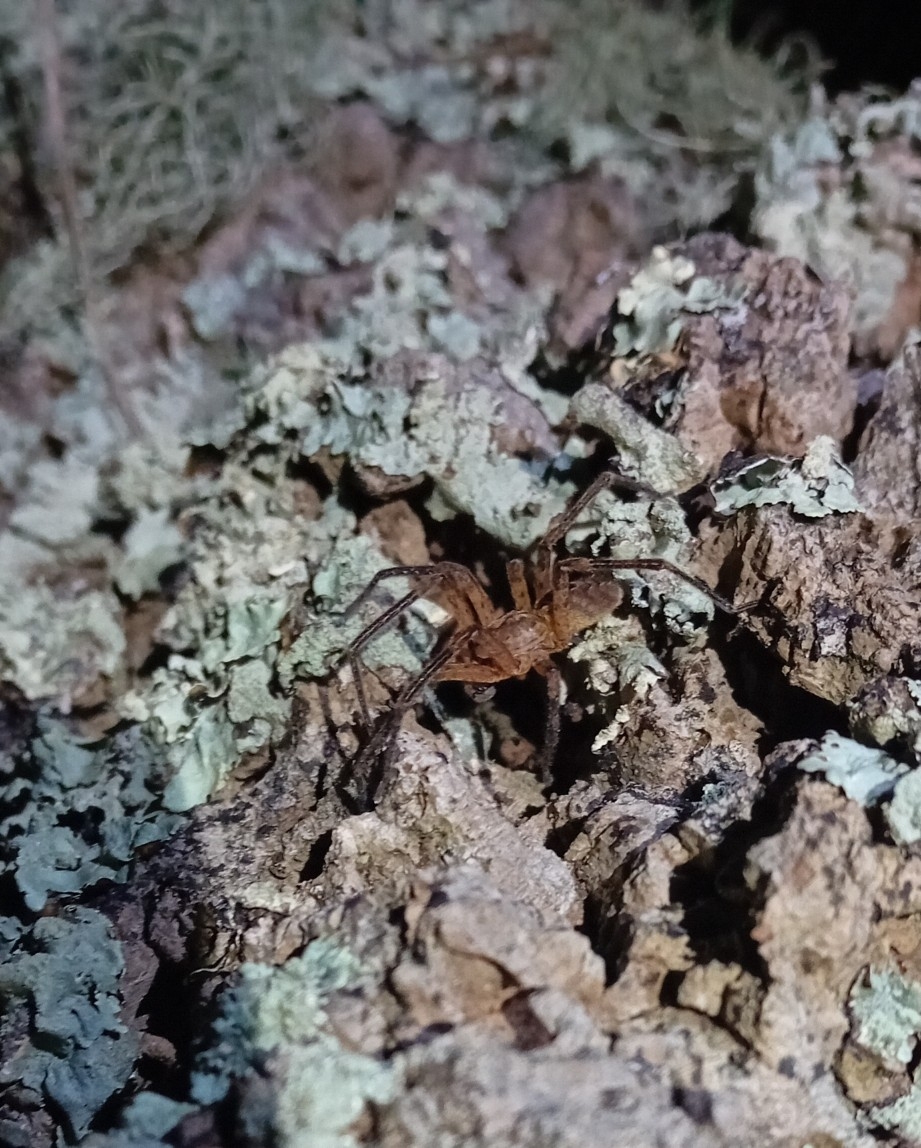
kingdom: Animalia
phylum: Arthropoda
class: Arachnida
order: Araneae
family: Zoropsidae
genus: Zoropsis
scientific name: Zoropsis spinimana
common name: Zoropsid spider
